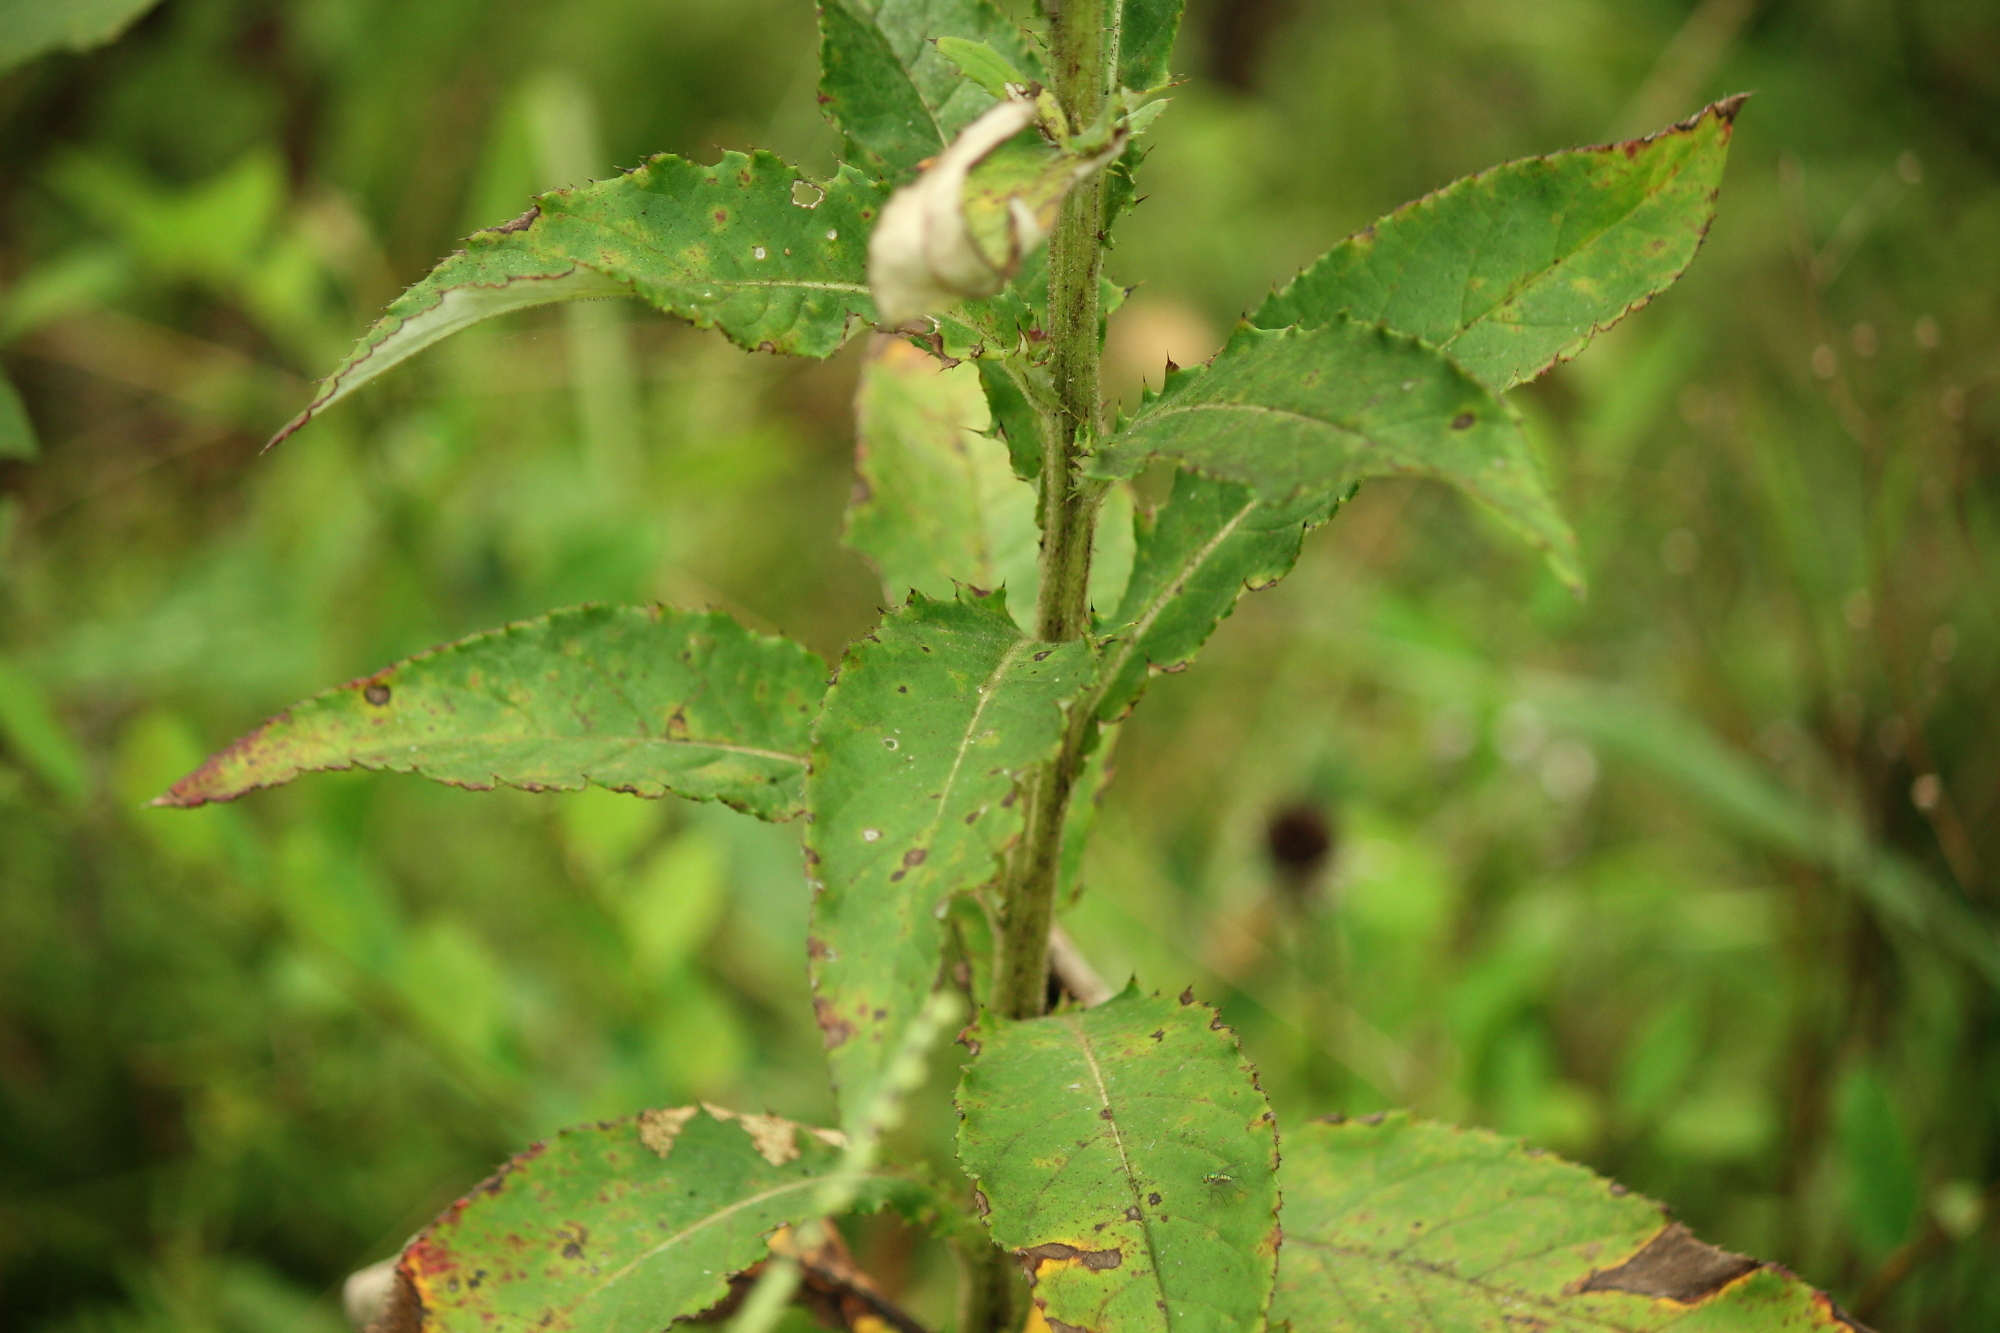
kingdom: Plantae
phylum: Tracheophyta
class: Magnoliopsida
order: Asterales
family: Asteraceae
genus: Cirsium
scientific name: Cirsium altissimum
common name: Roadside thistle
